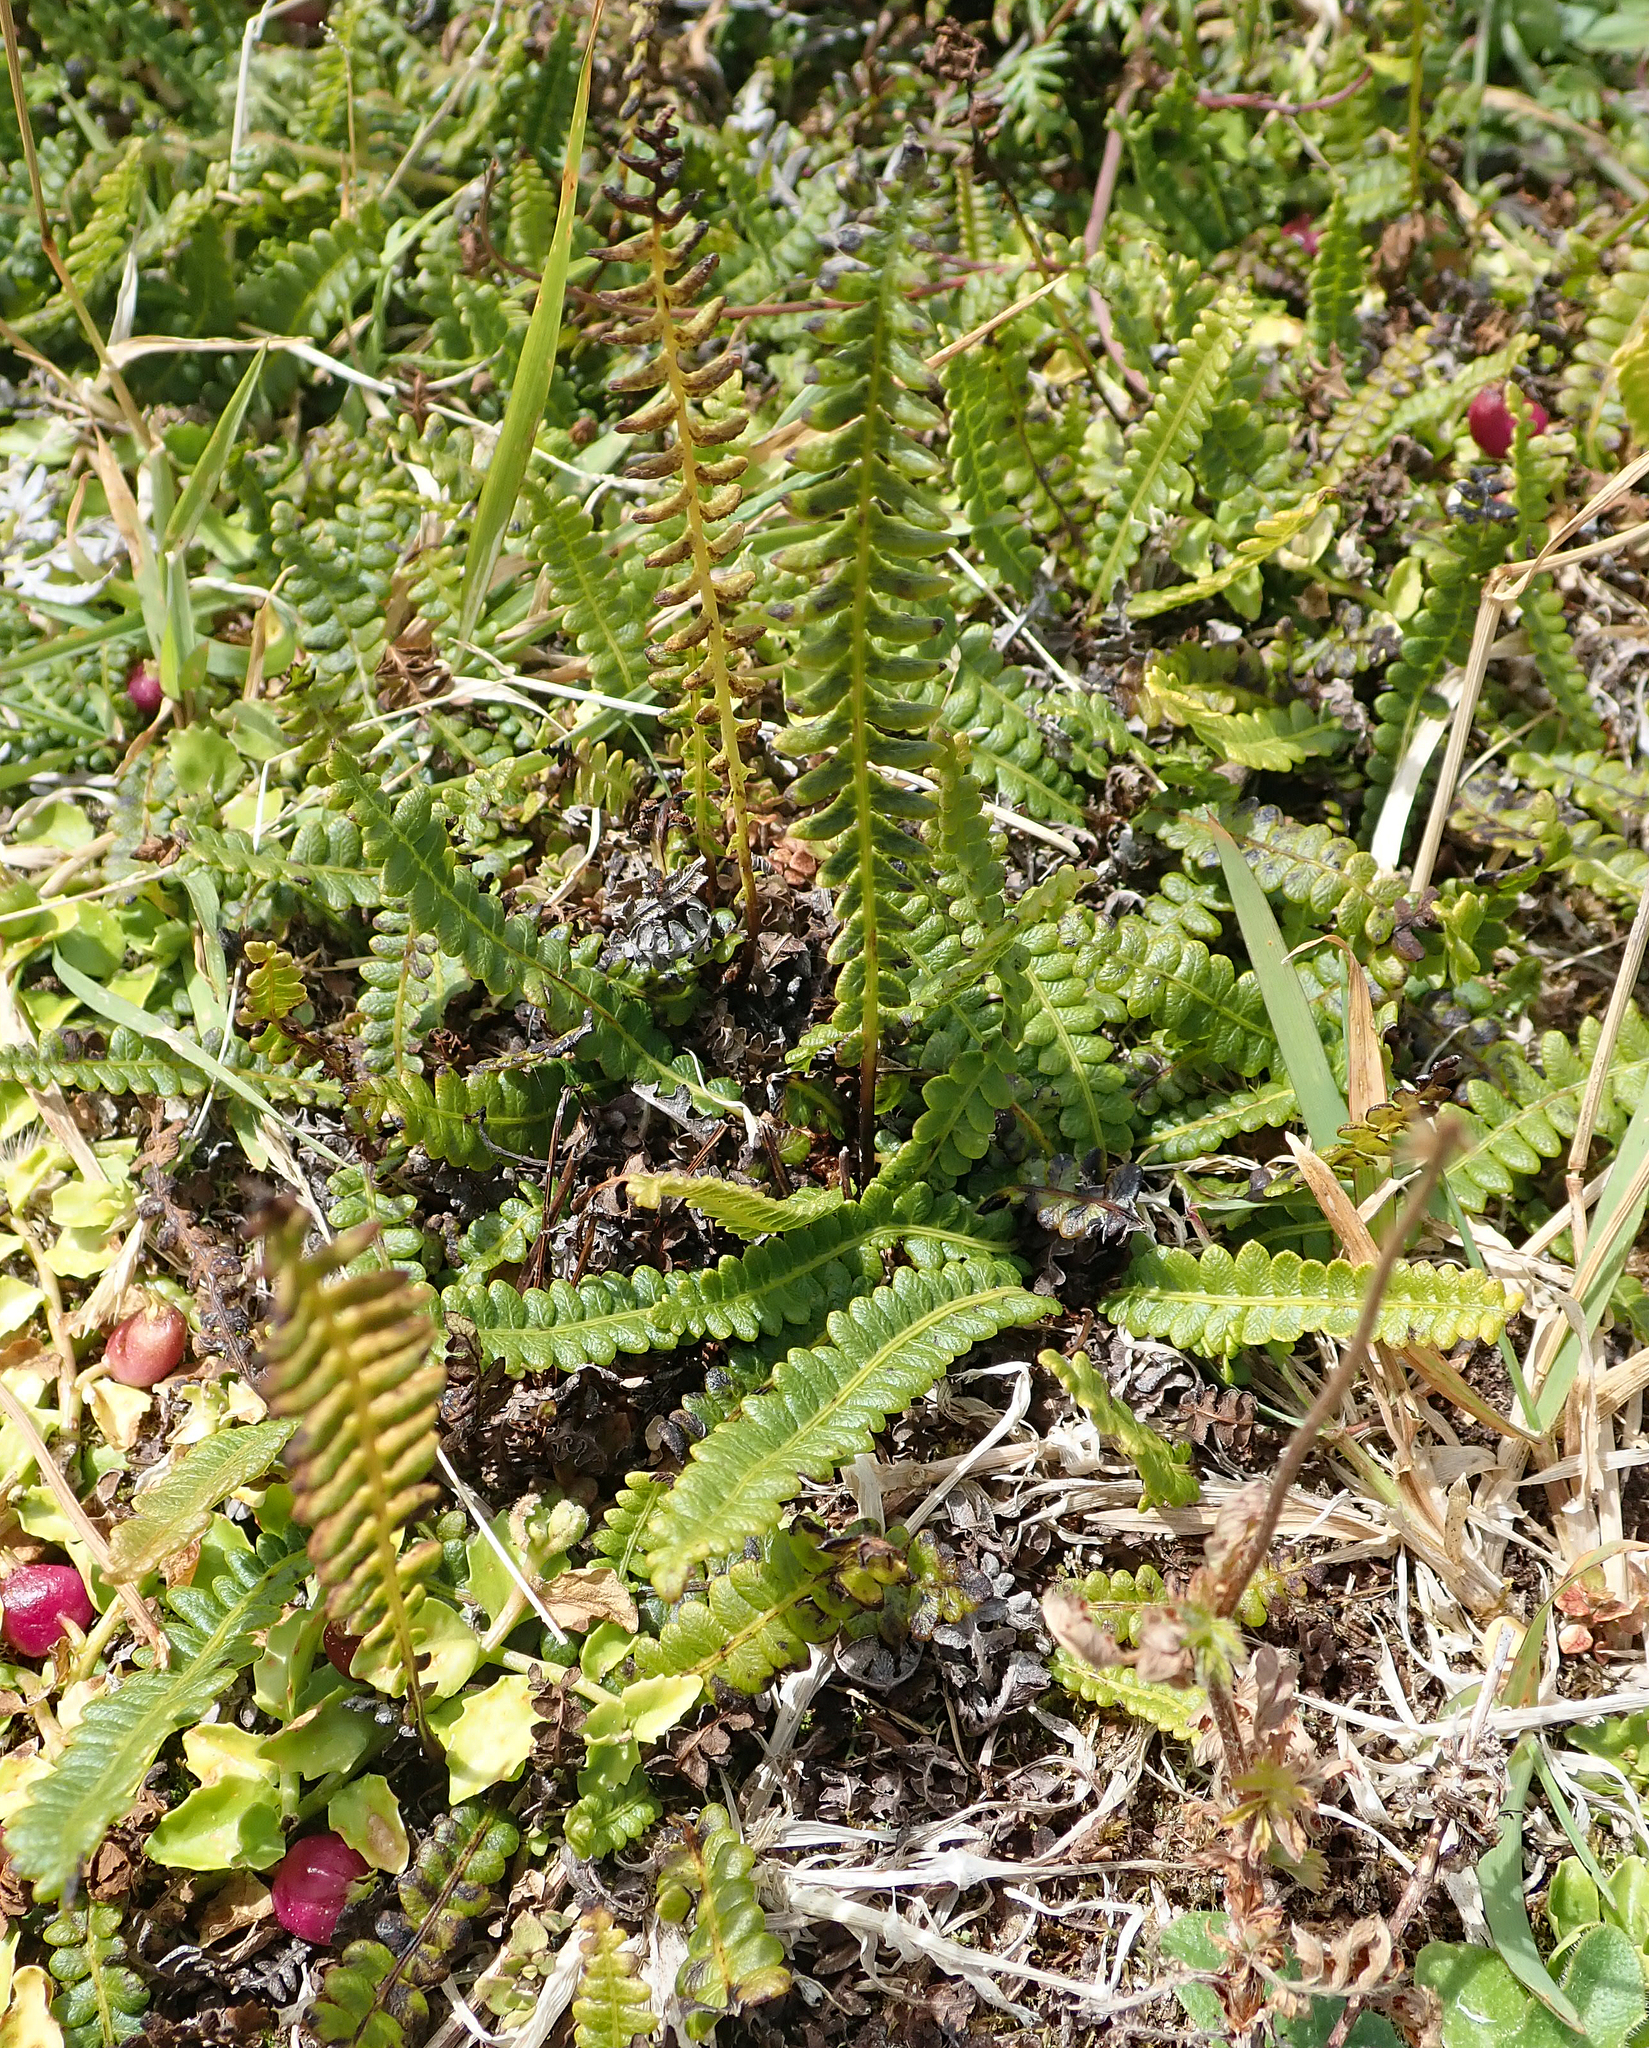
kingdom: Plantae
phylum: Tracheophyta
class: Polypodiopsida
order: Polypodiales
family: Blechnaceae
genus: Austroblechnum
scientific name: Austroblechnum penna-marina
